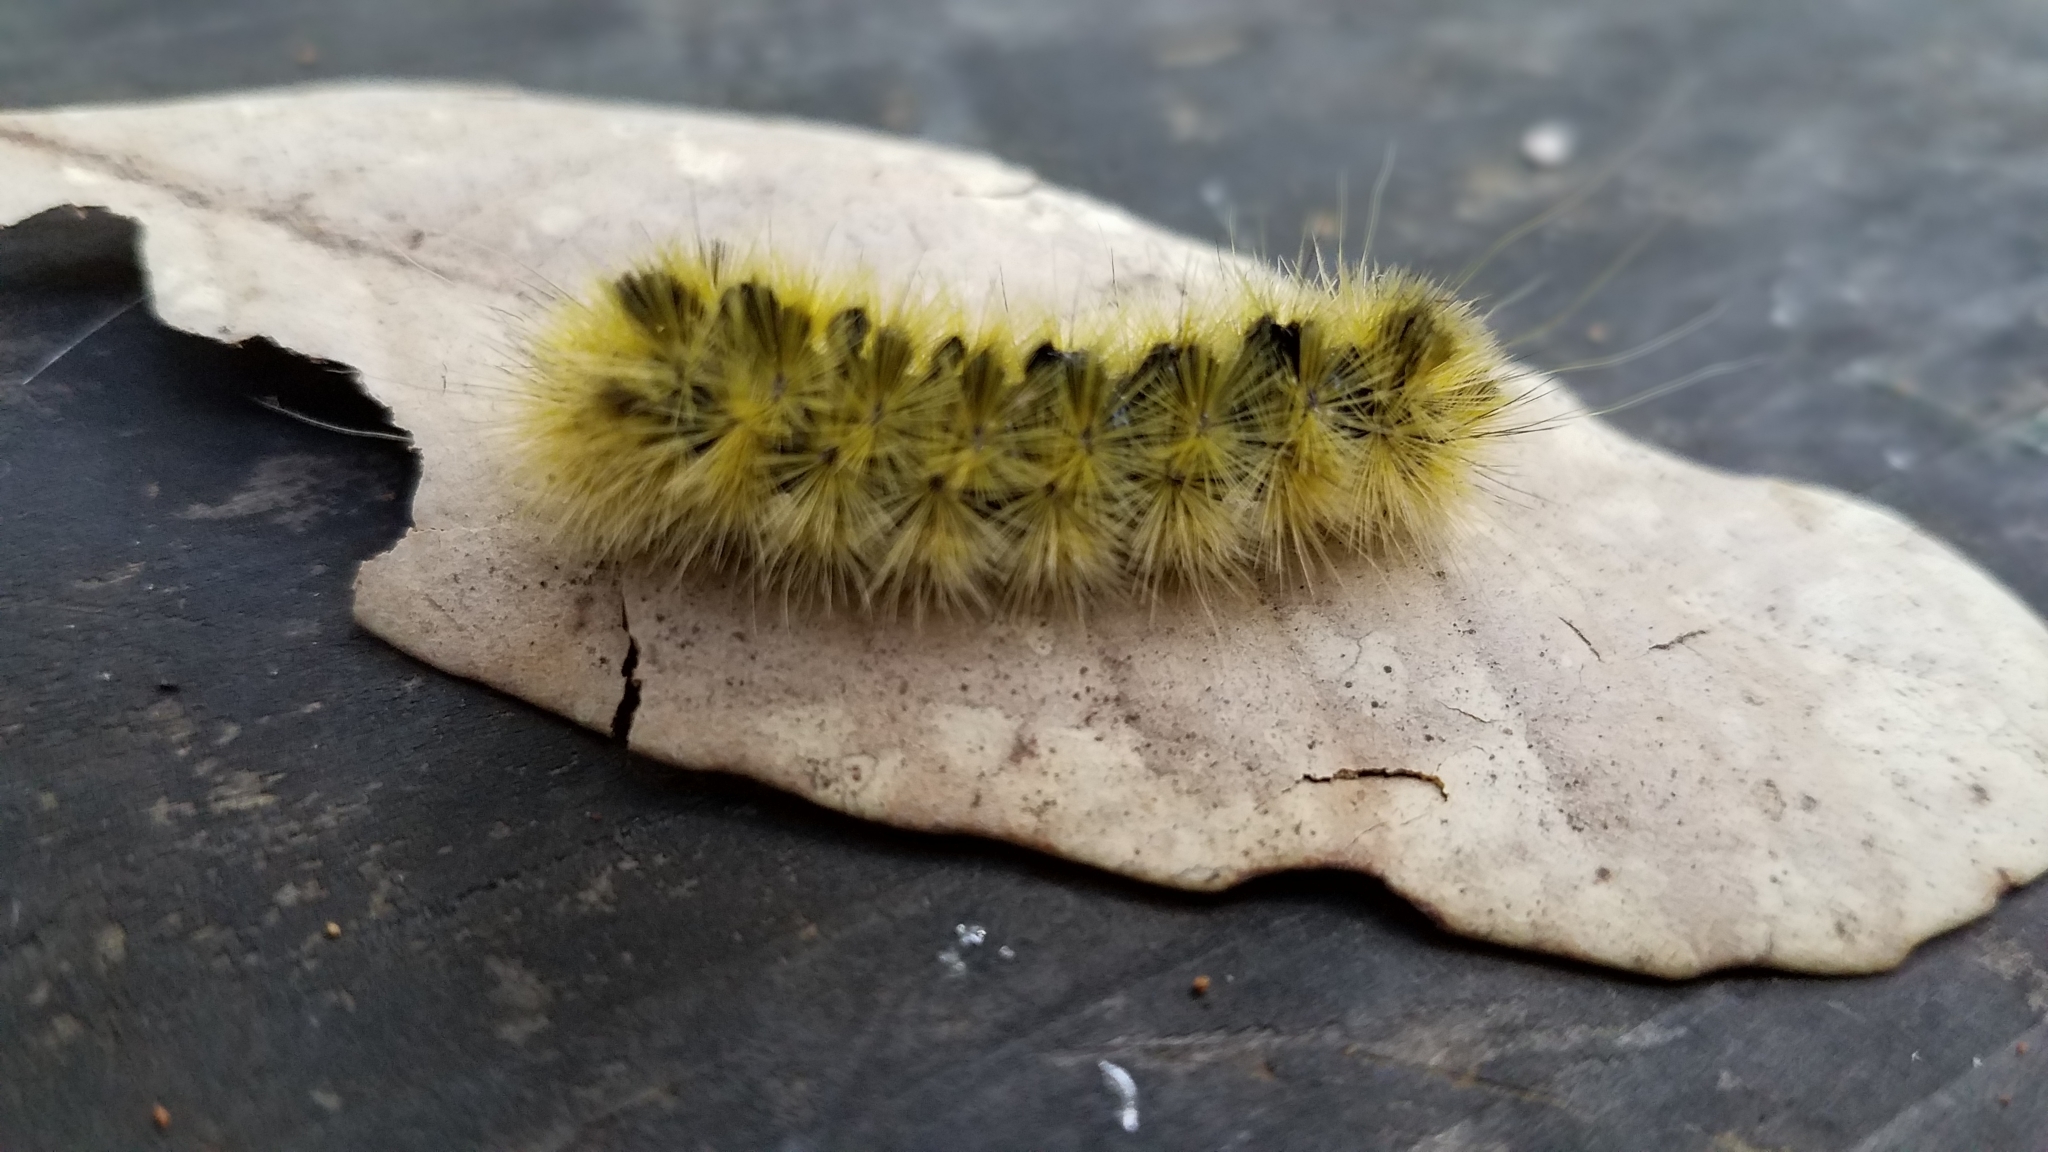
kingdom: Animalia
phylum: Arthropoda
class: Insecta
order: Lepidoptera
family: Erebidae
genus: Lophocampa
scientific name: Lophocampa argentata
